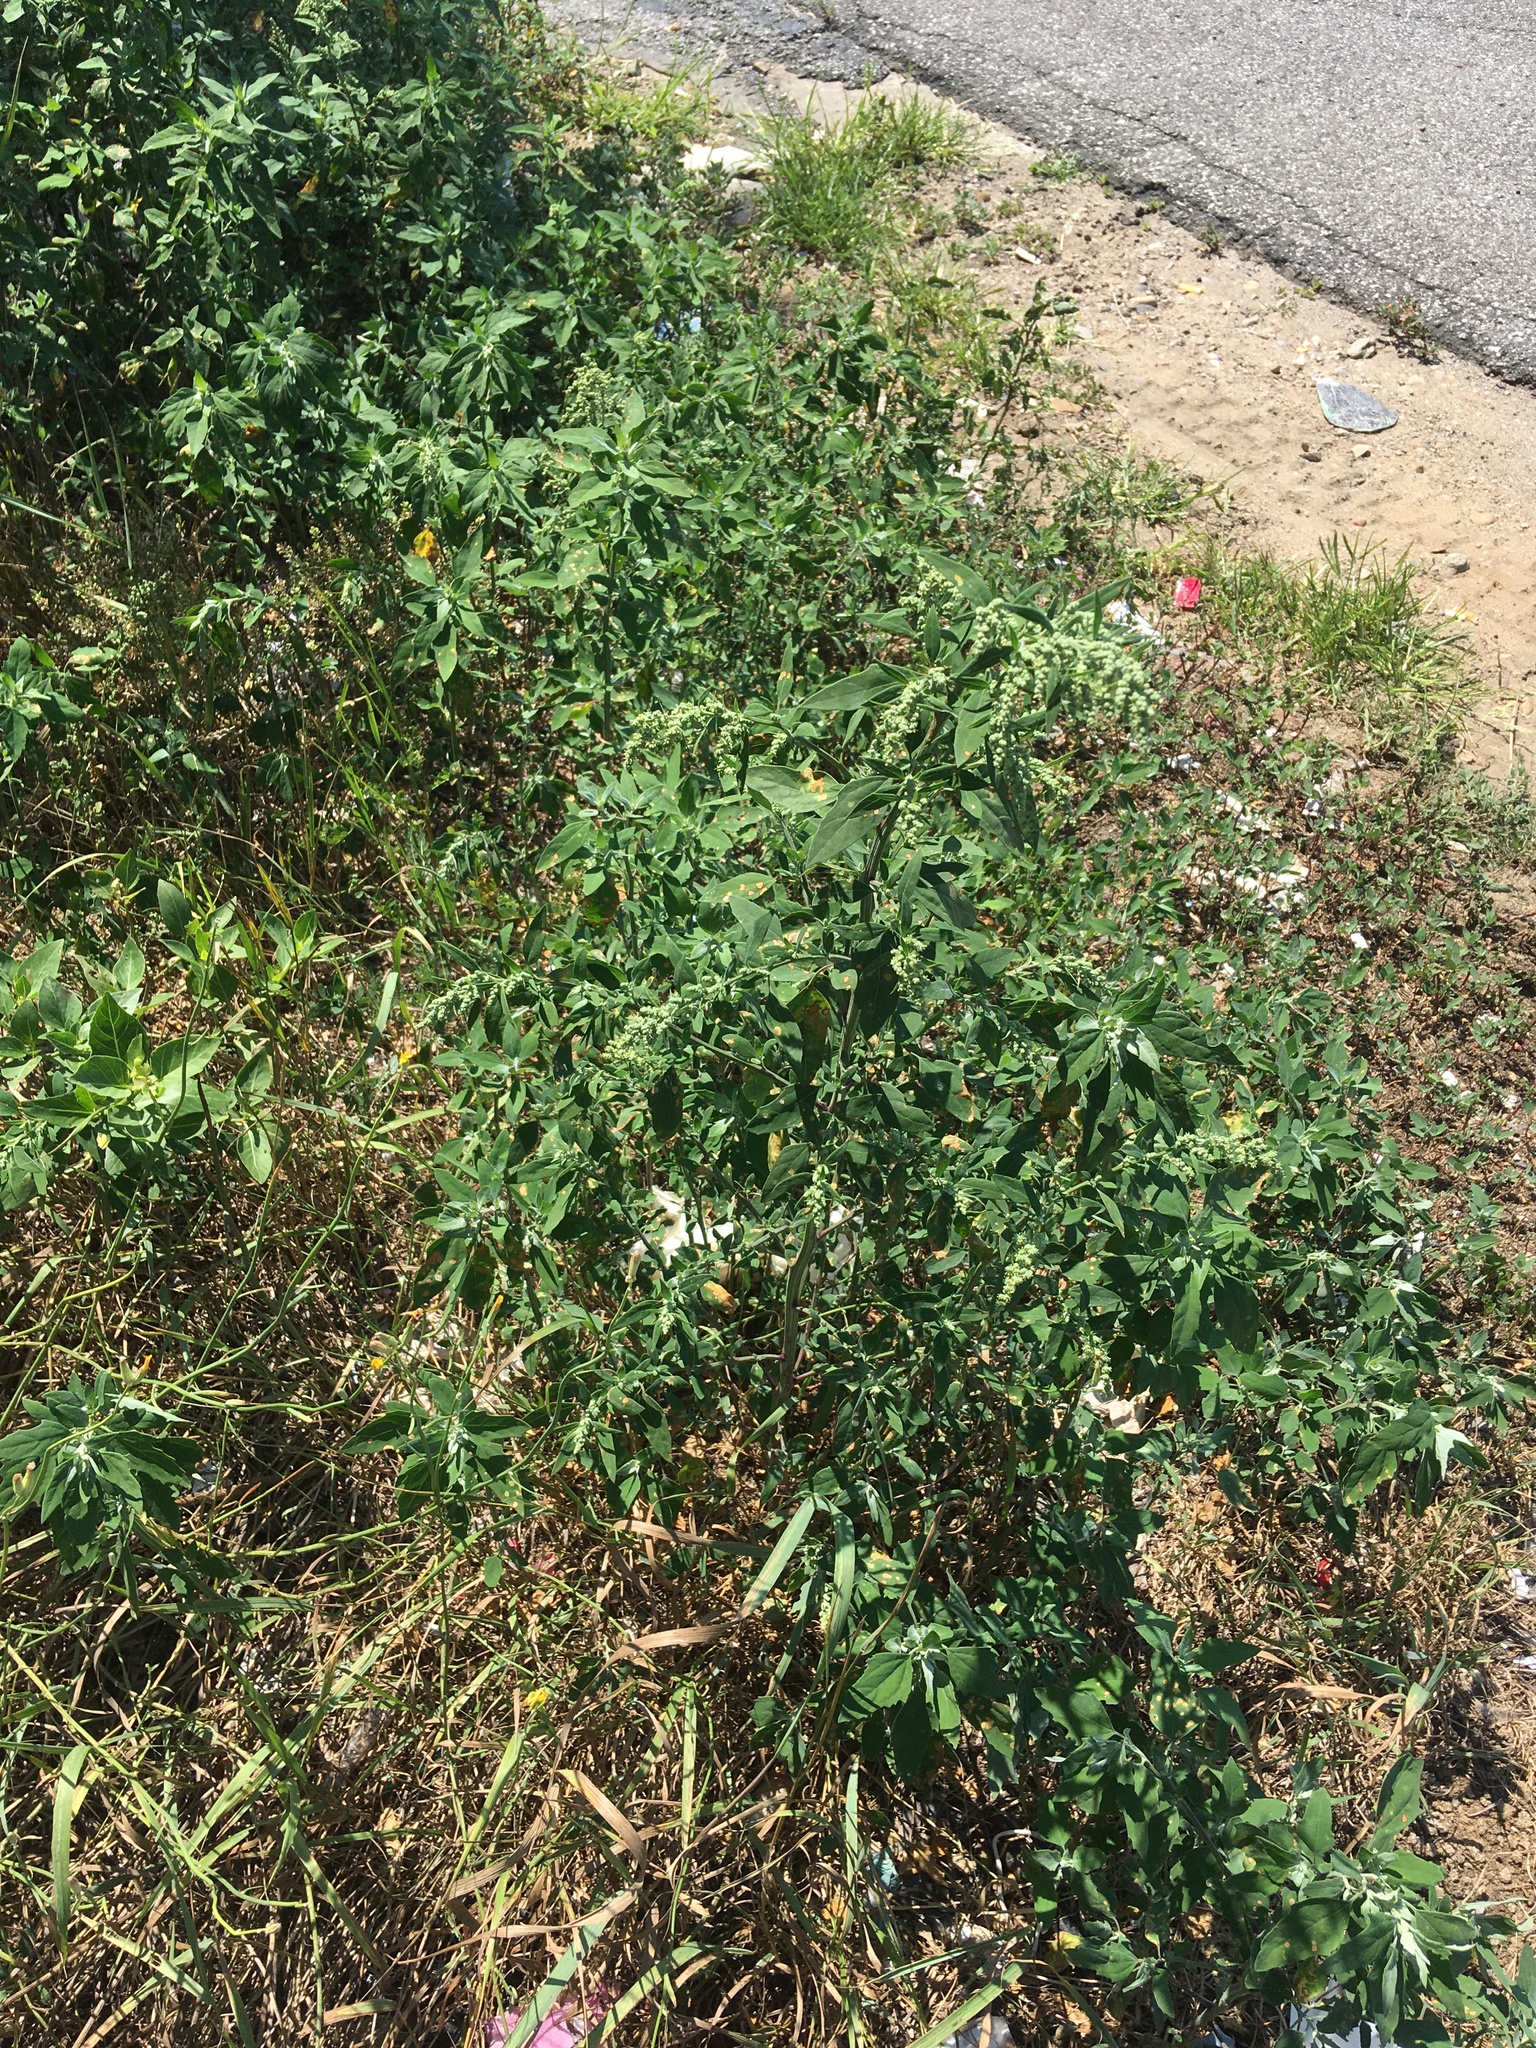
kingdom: Plantae
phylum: Tracheophyta
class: Magnoliopsida
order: Caryophyllales
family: Amaranthaceae
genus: Chenopodium
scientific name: Chenopodium album
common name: Fat-hen
